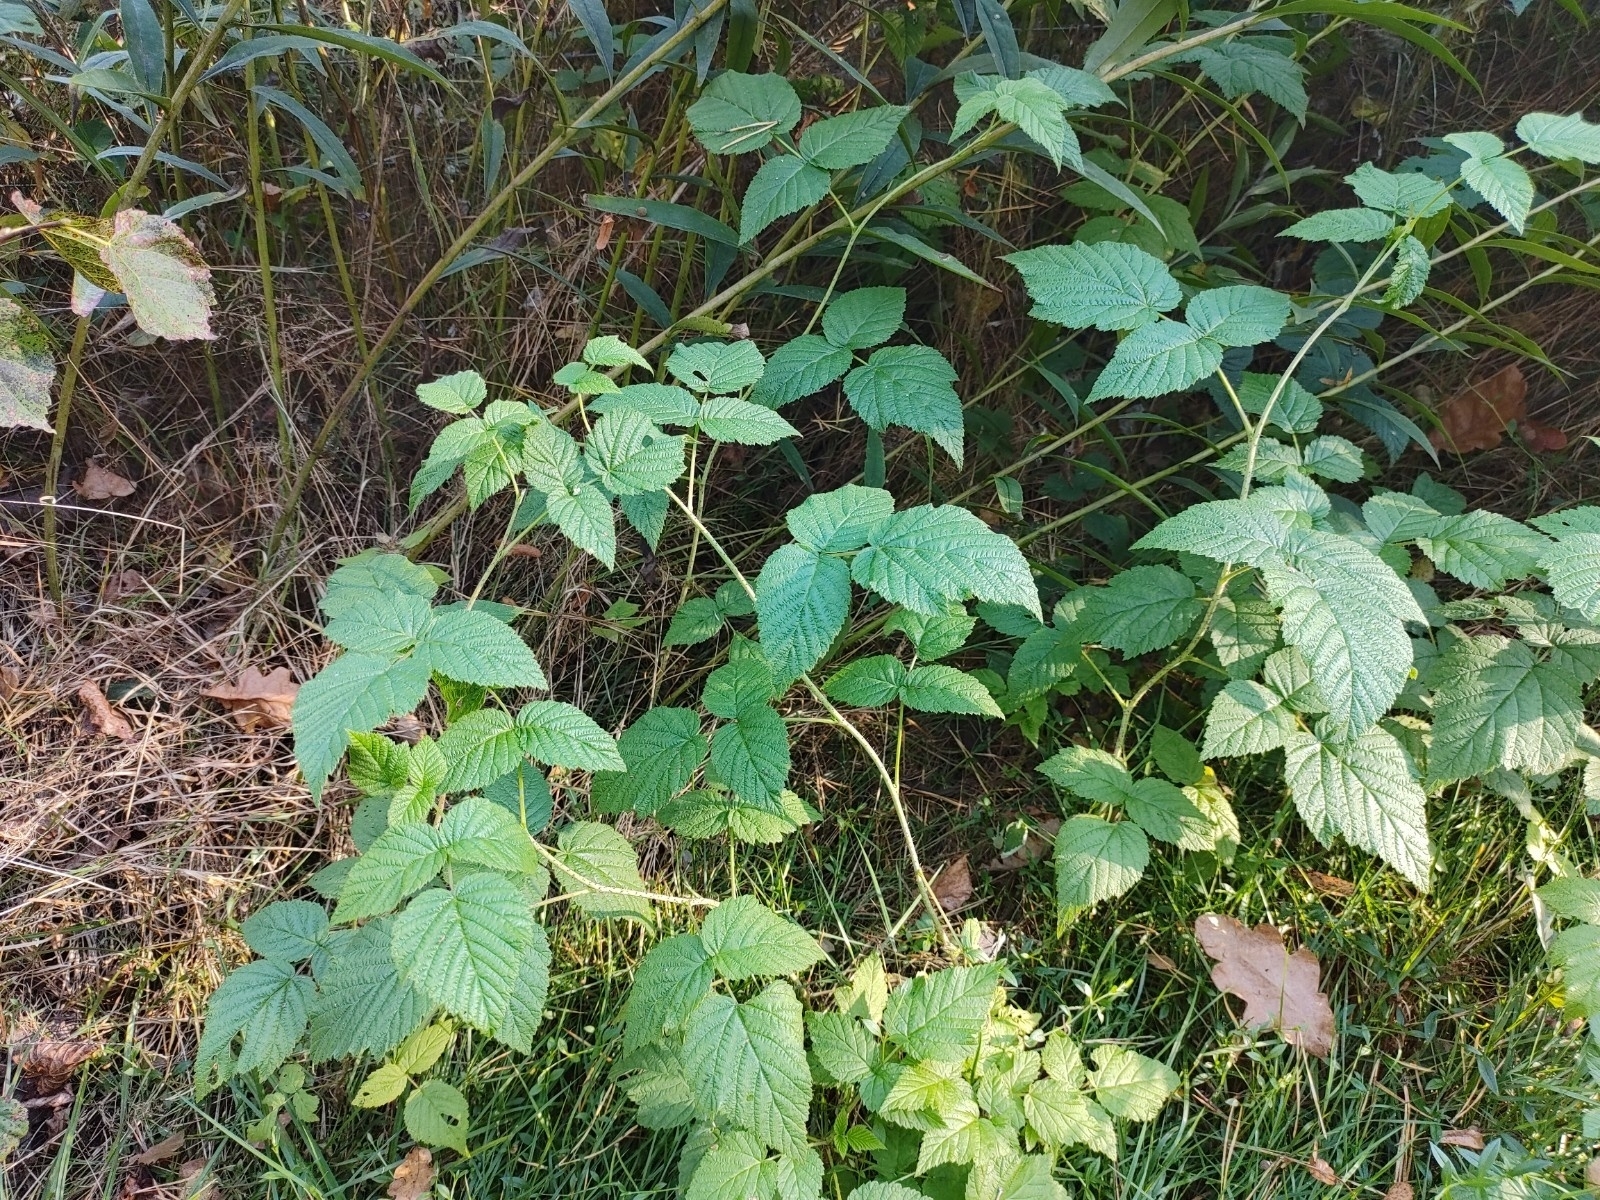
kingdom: Plantae
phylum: Tracheophyta
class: Magnoliopsida
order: Rosales
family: Rosaceae
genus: Rubus
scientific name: Rubus idaeus
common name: Raspberry
